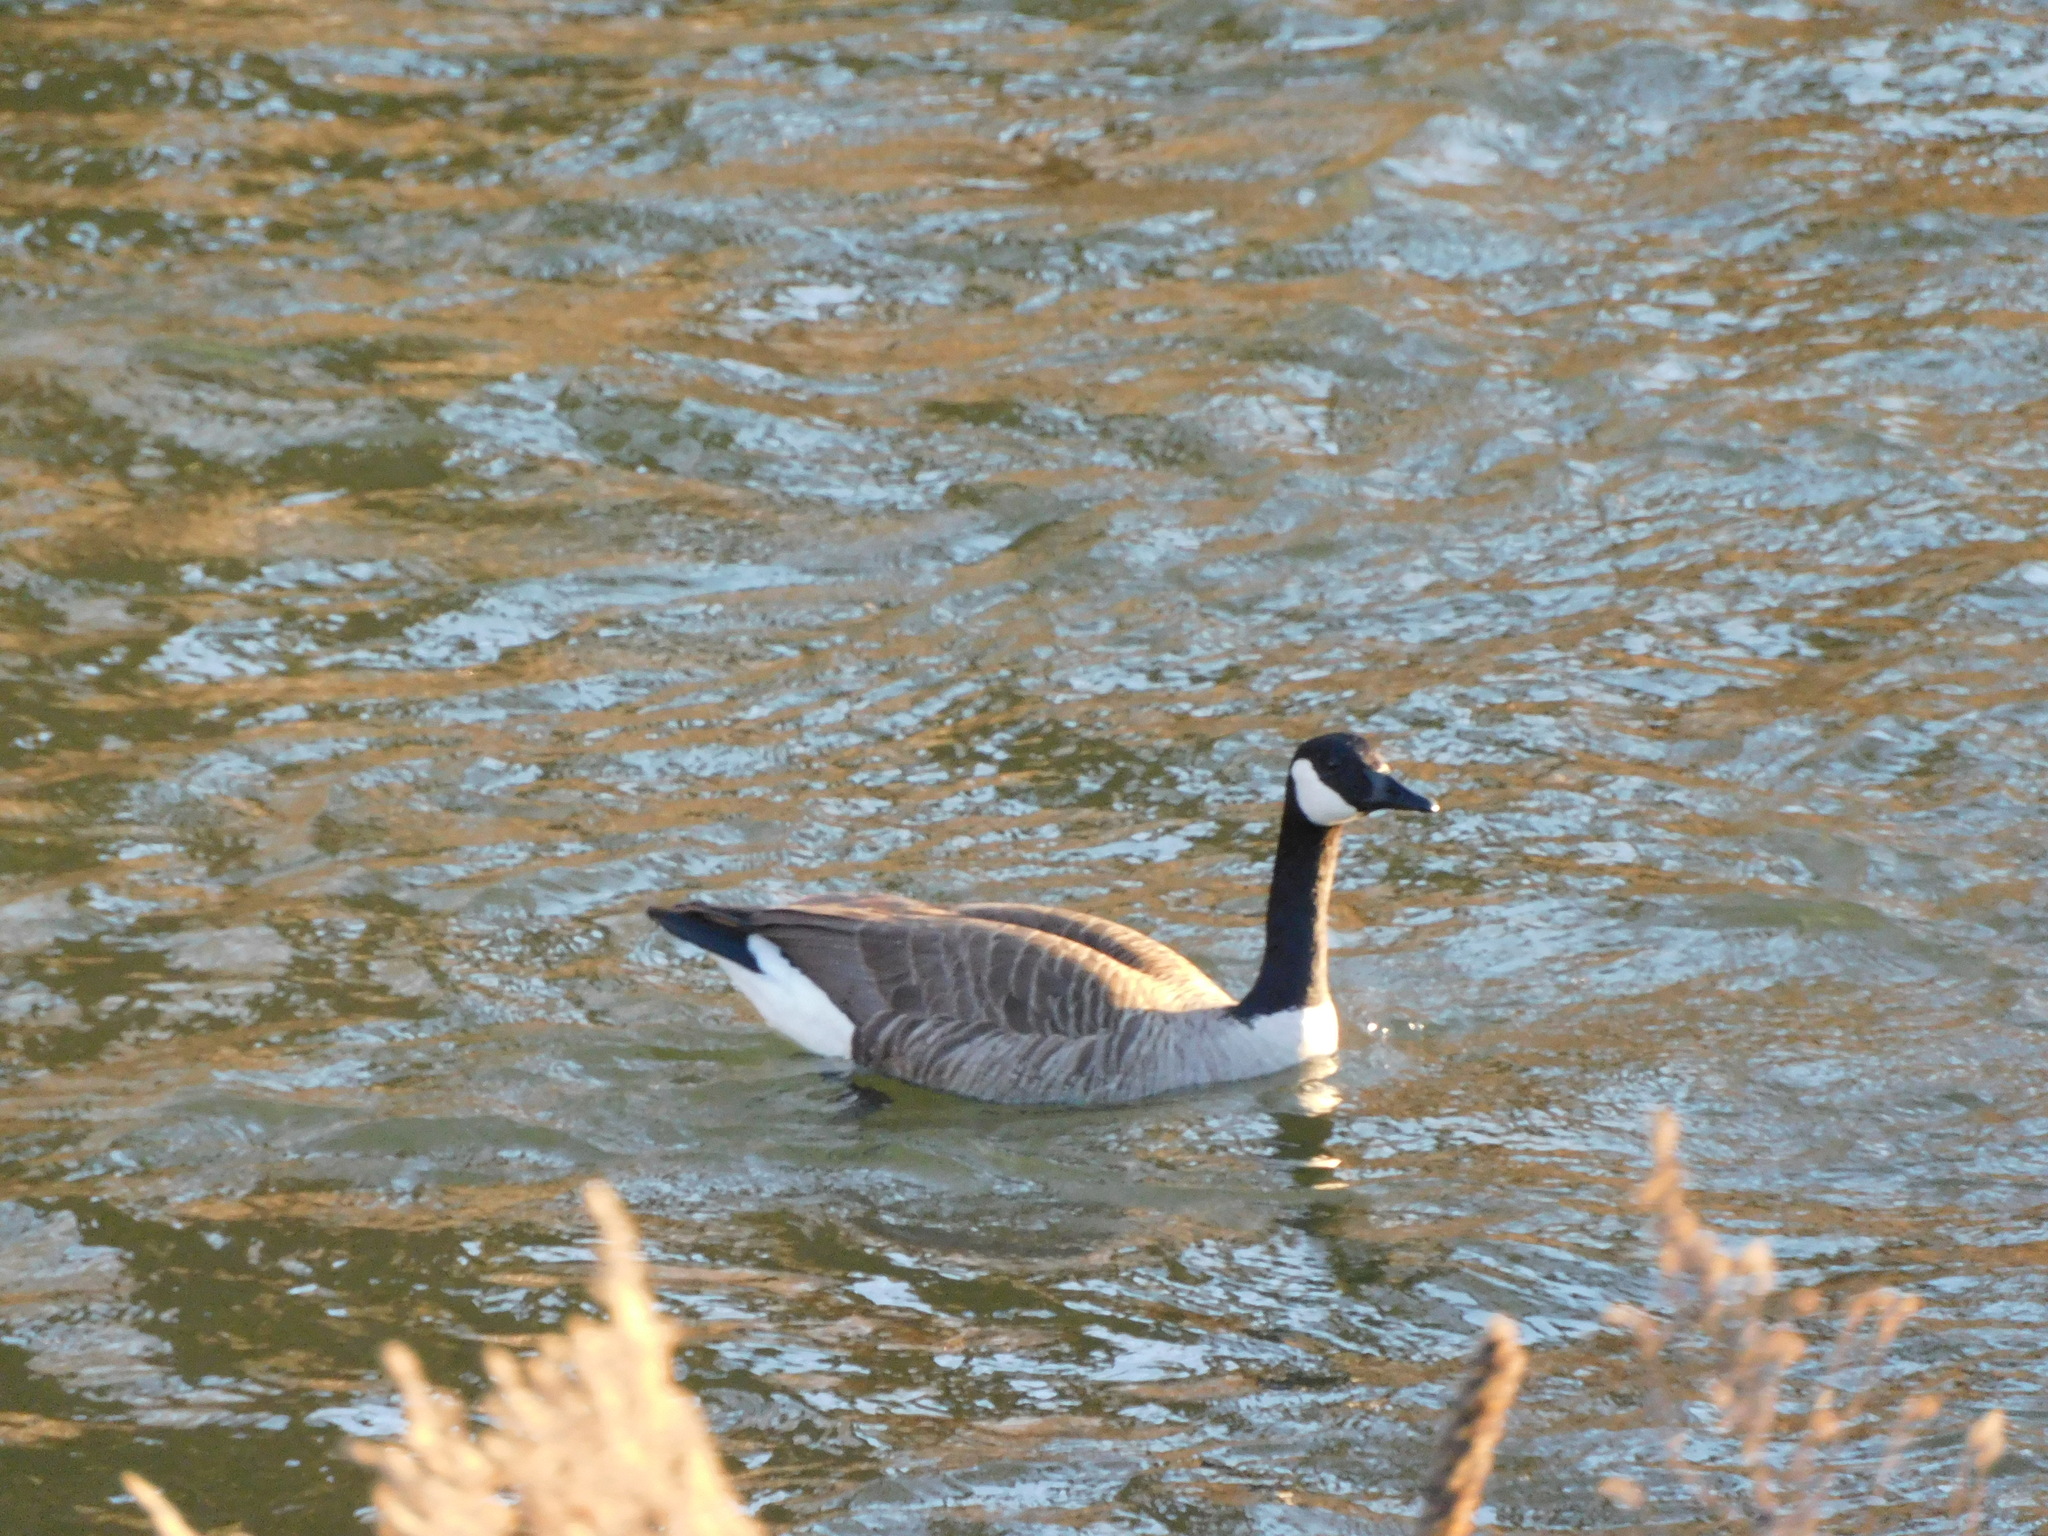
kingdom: Animalia
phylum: Chordata
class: Aves
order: Anseriformes
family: Anatidae
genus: Branta
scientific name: Branta canadensis
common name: Canada goose
